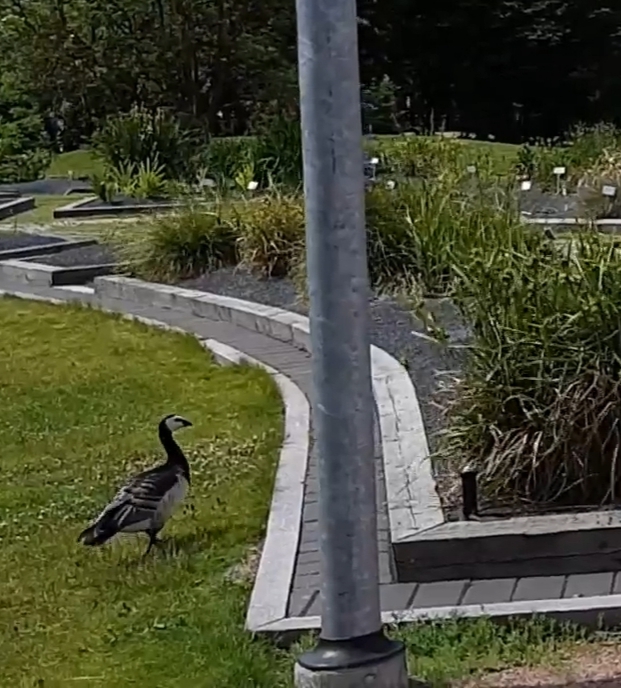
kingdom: Animalia
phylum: Chordata
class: Aves
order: Anseriformes
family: Anatidae
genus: Branta
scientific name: Branta leucopsis
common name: Barnacle goose
